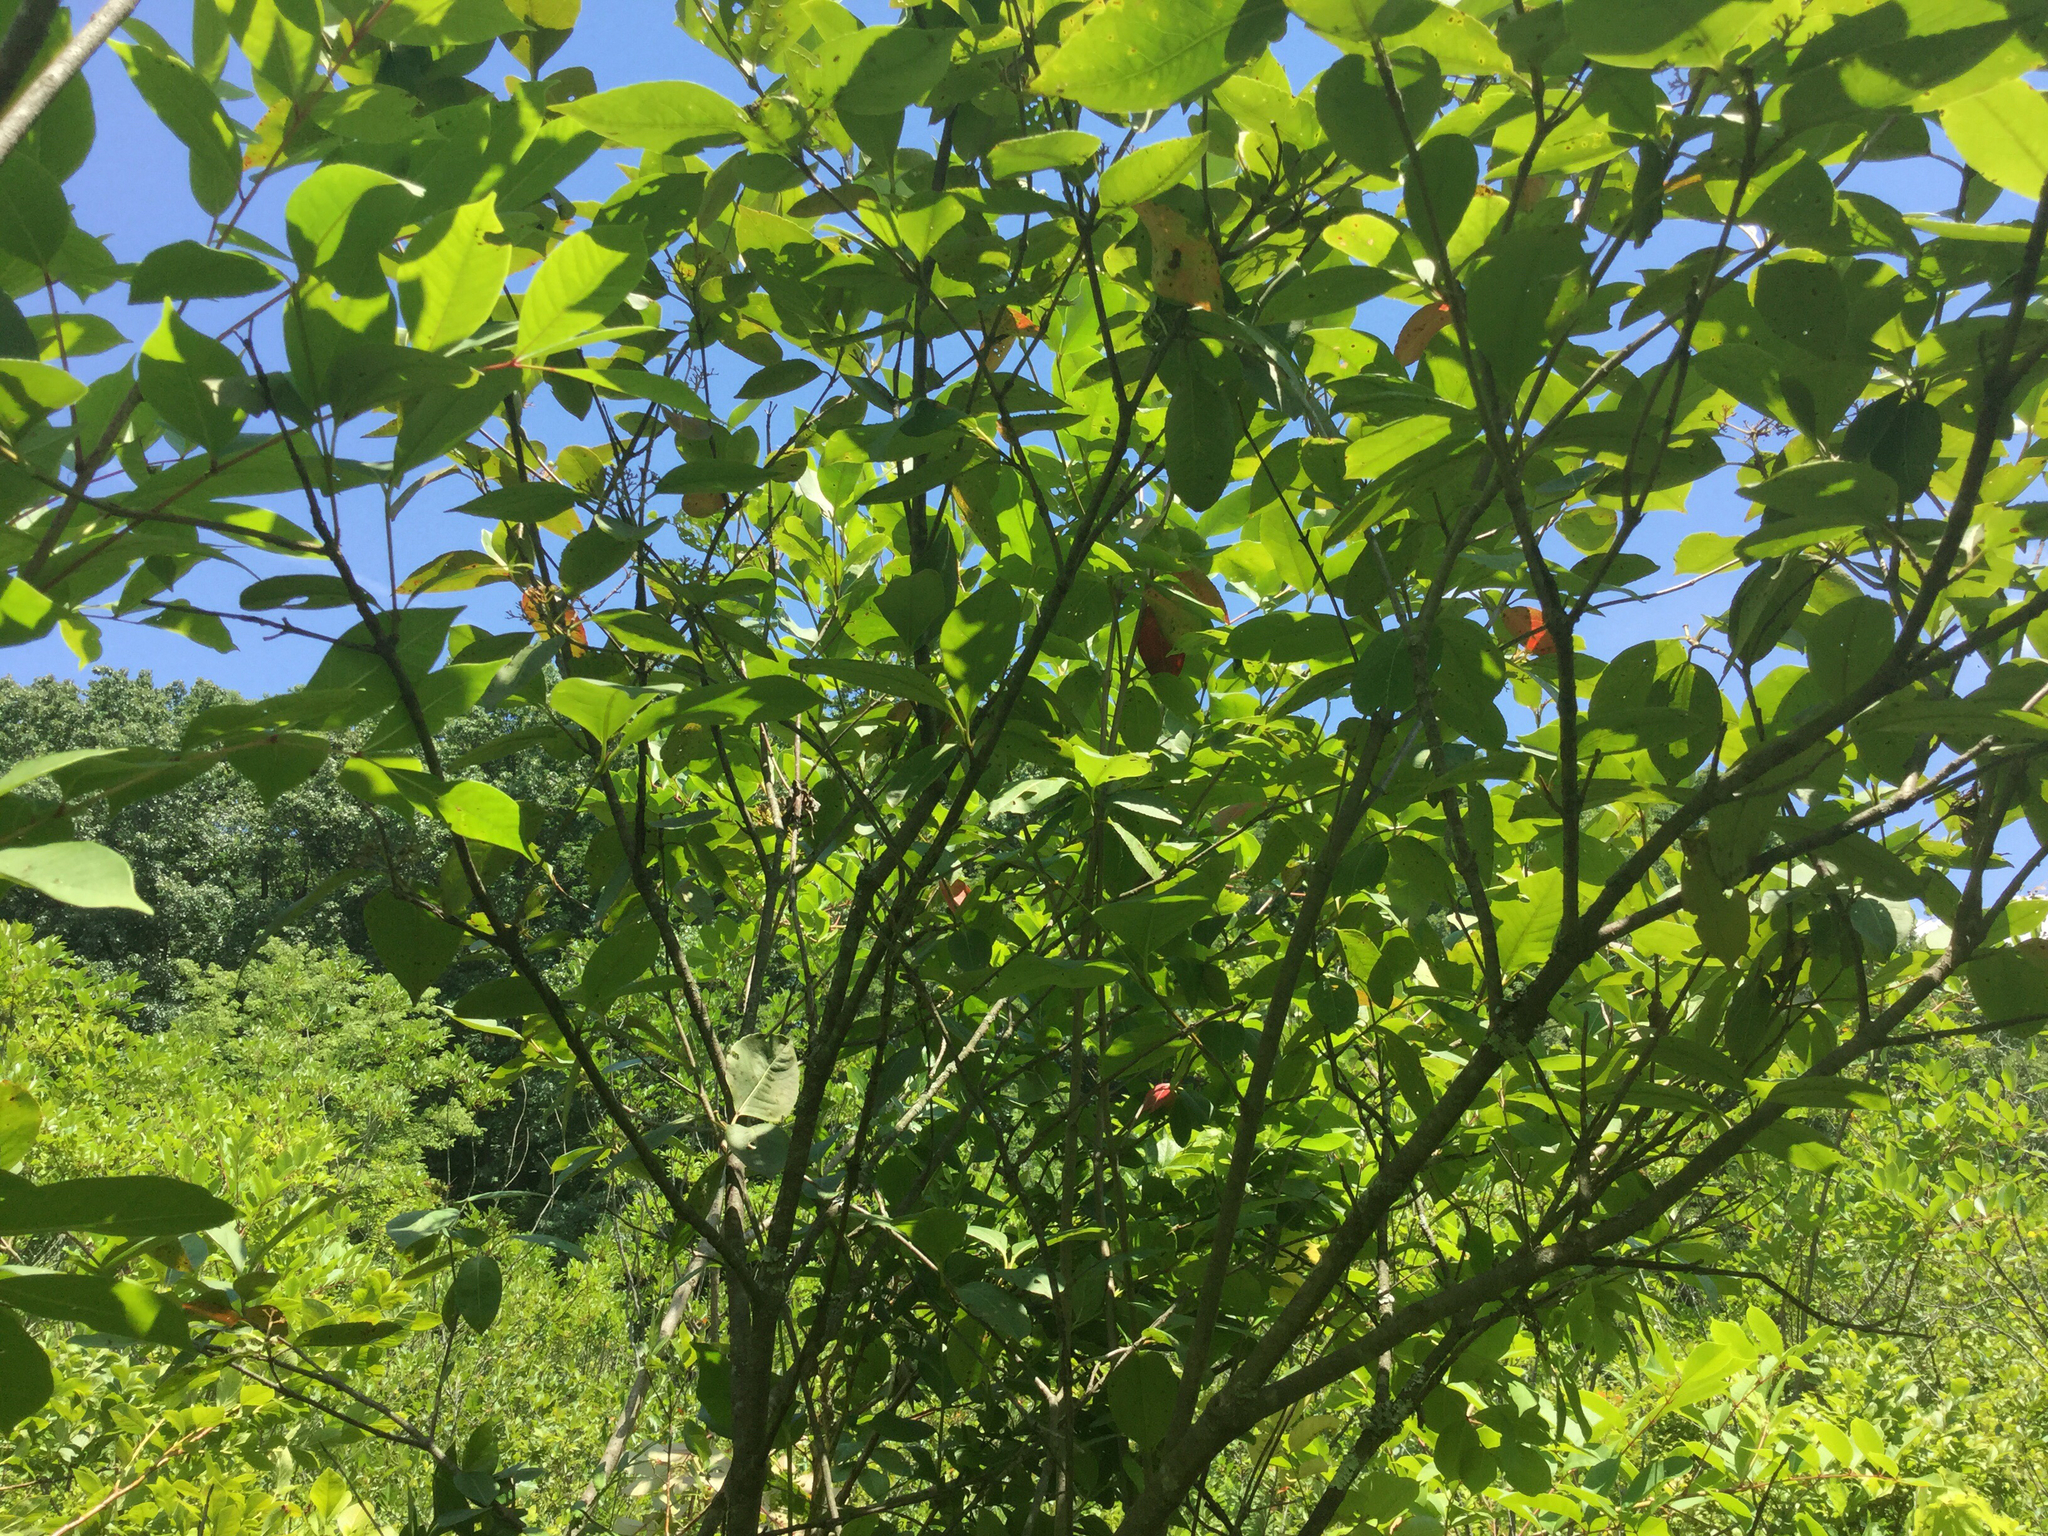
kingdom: Plantae
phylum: Tracheophyta
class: Magnoliopsida
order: Dipsacales
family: Viburnaceae
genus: Viburnum
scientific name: Viburnum cassinoides
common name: Swamp haw
